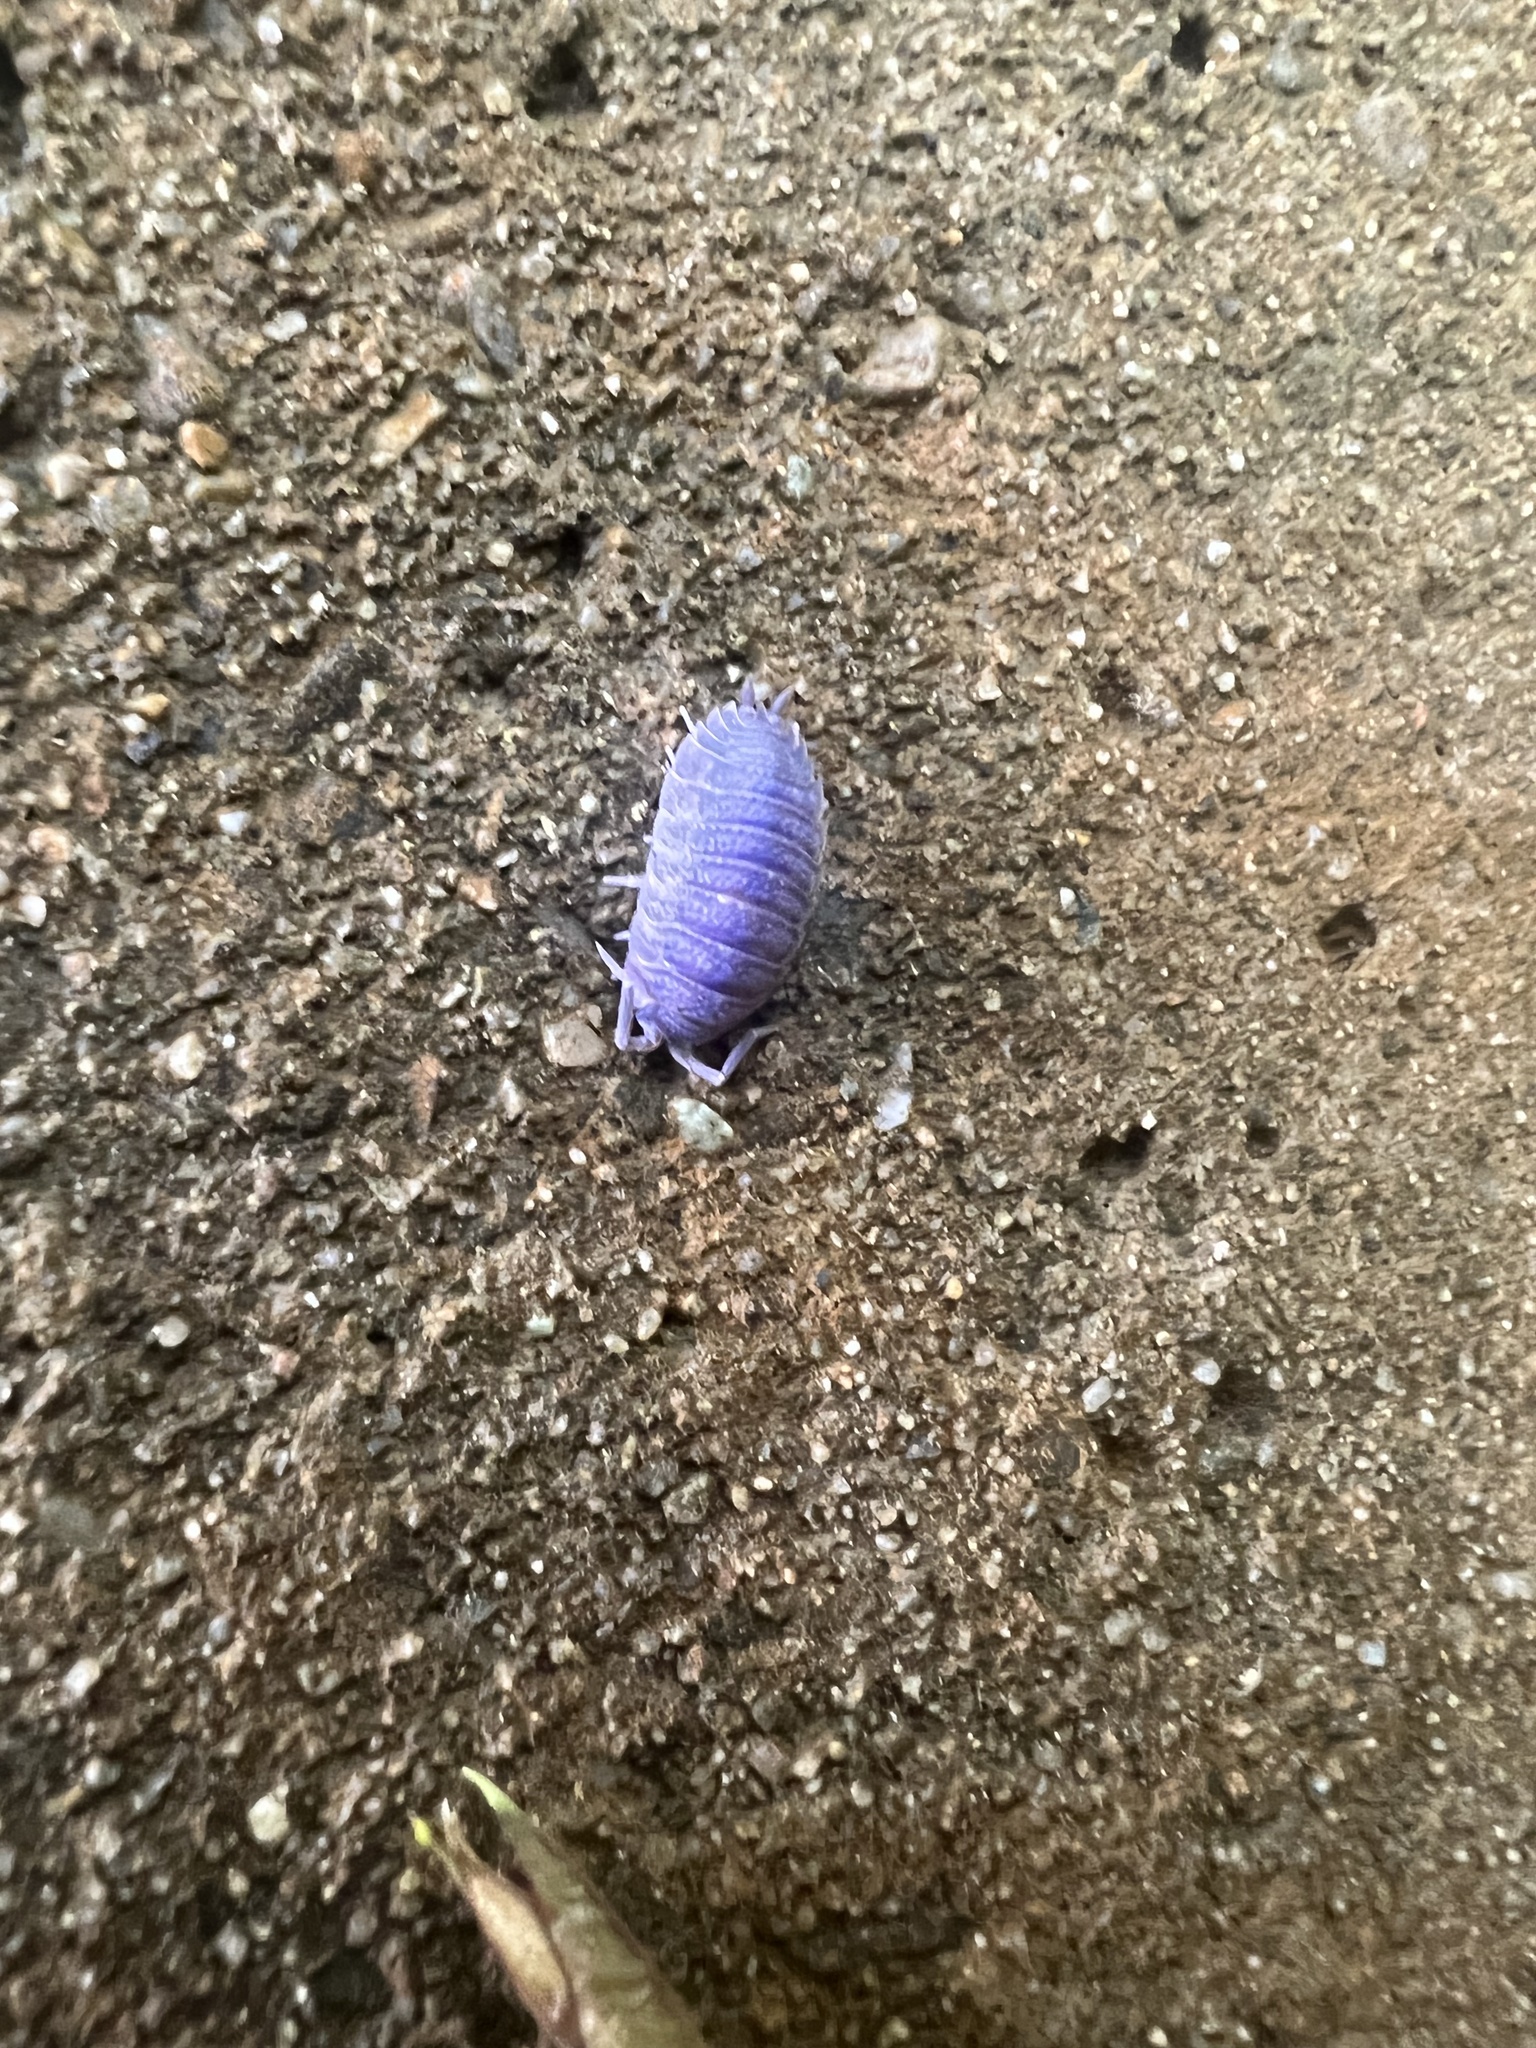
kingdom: Viruses
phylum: Nucleocytoviricota
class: Megaviricetes
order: Pimascovirales
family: Iridoviridae
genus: Iridovirus
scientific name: Iridovirus Invertebrate iridescent virus 31
